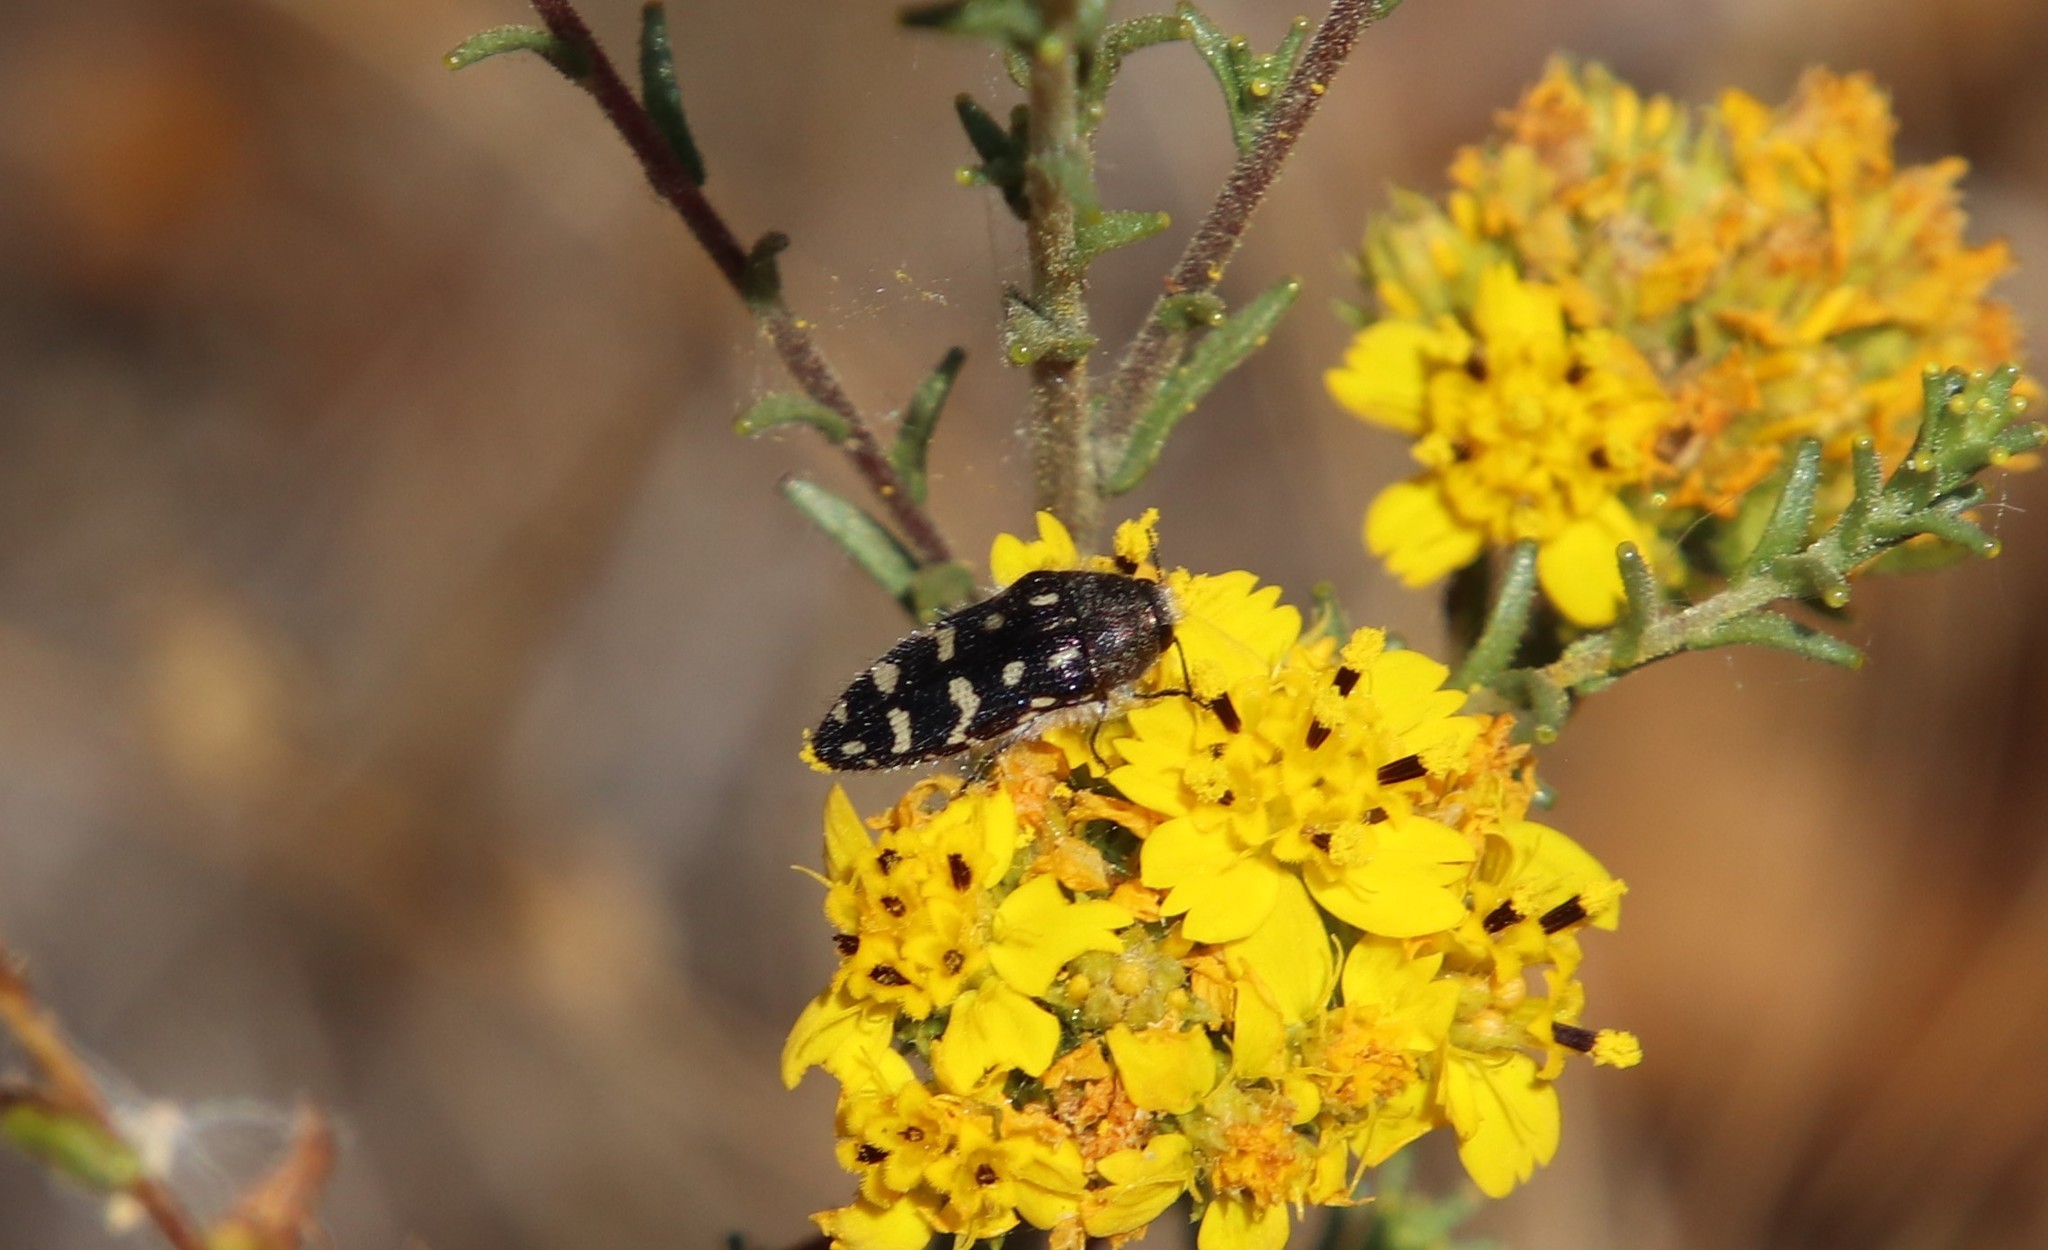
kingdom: Animalia
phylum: Arthropoda
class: Insecta
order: Coleoptera
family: Buprestidae
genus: Acmaeodera
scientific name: Acmaeodera bacchariphaga
